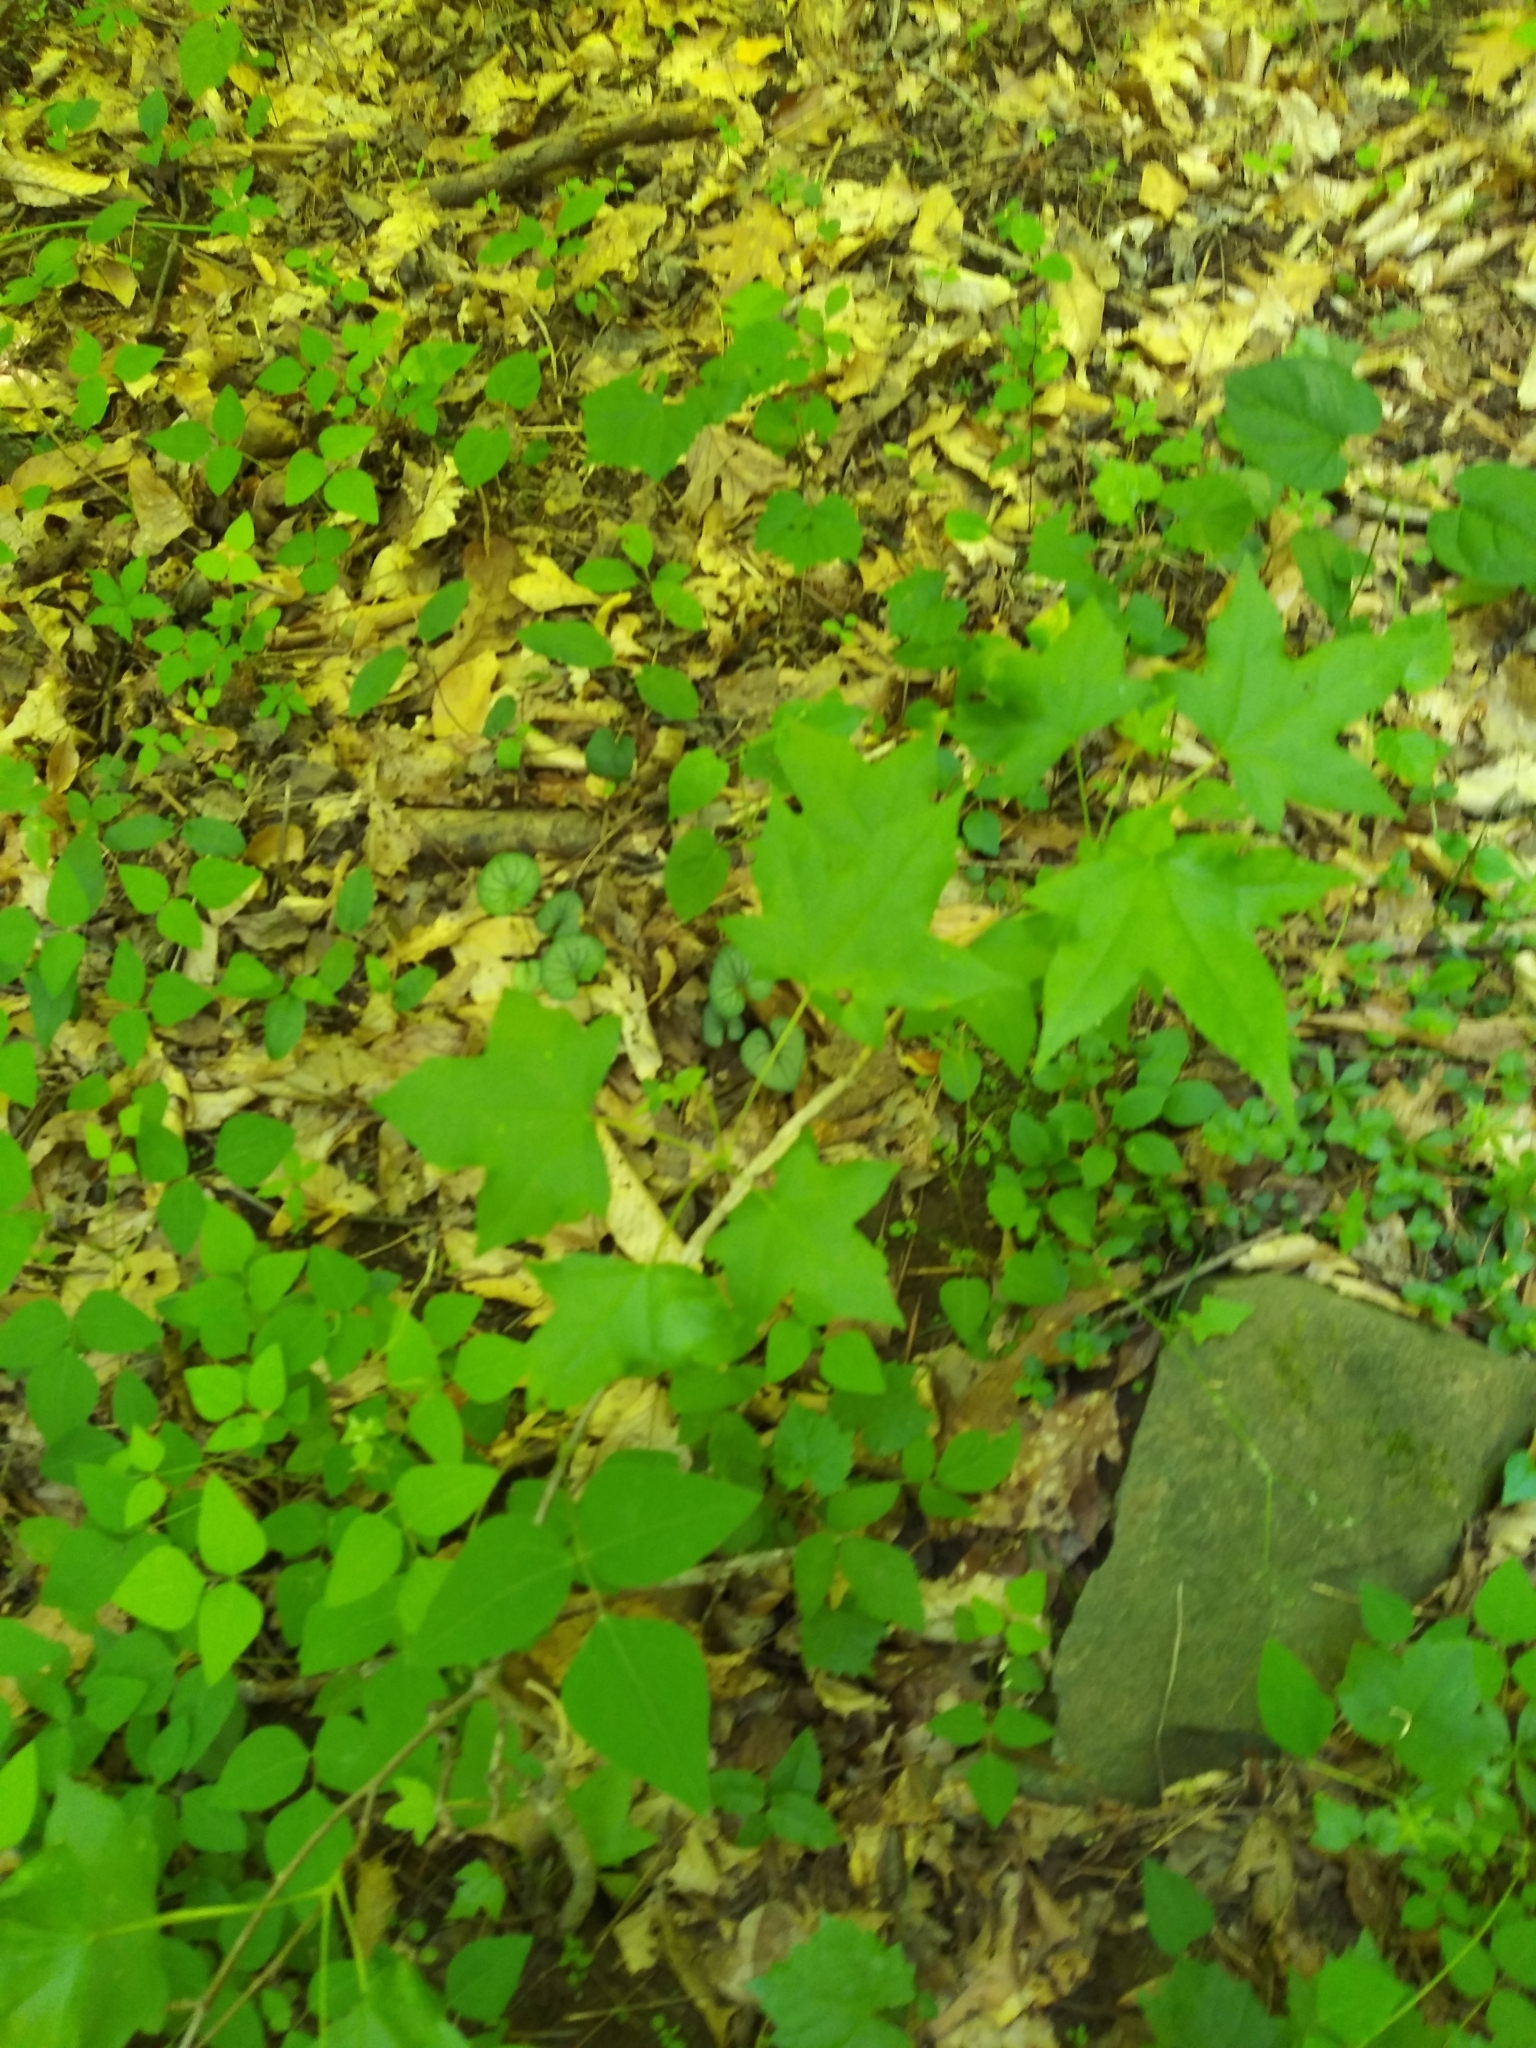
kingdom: Plantae
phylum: Tracheophyta
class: Magnoliopsida
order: Saxifragales
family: Altingiaceae
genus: Liquidambar
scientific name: Liquidambar styraciflua
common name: Sweet gum
